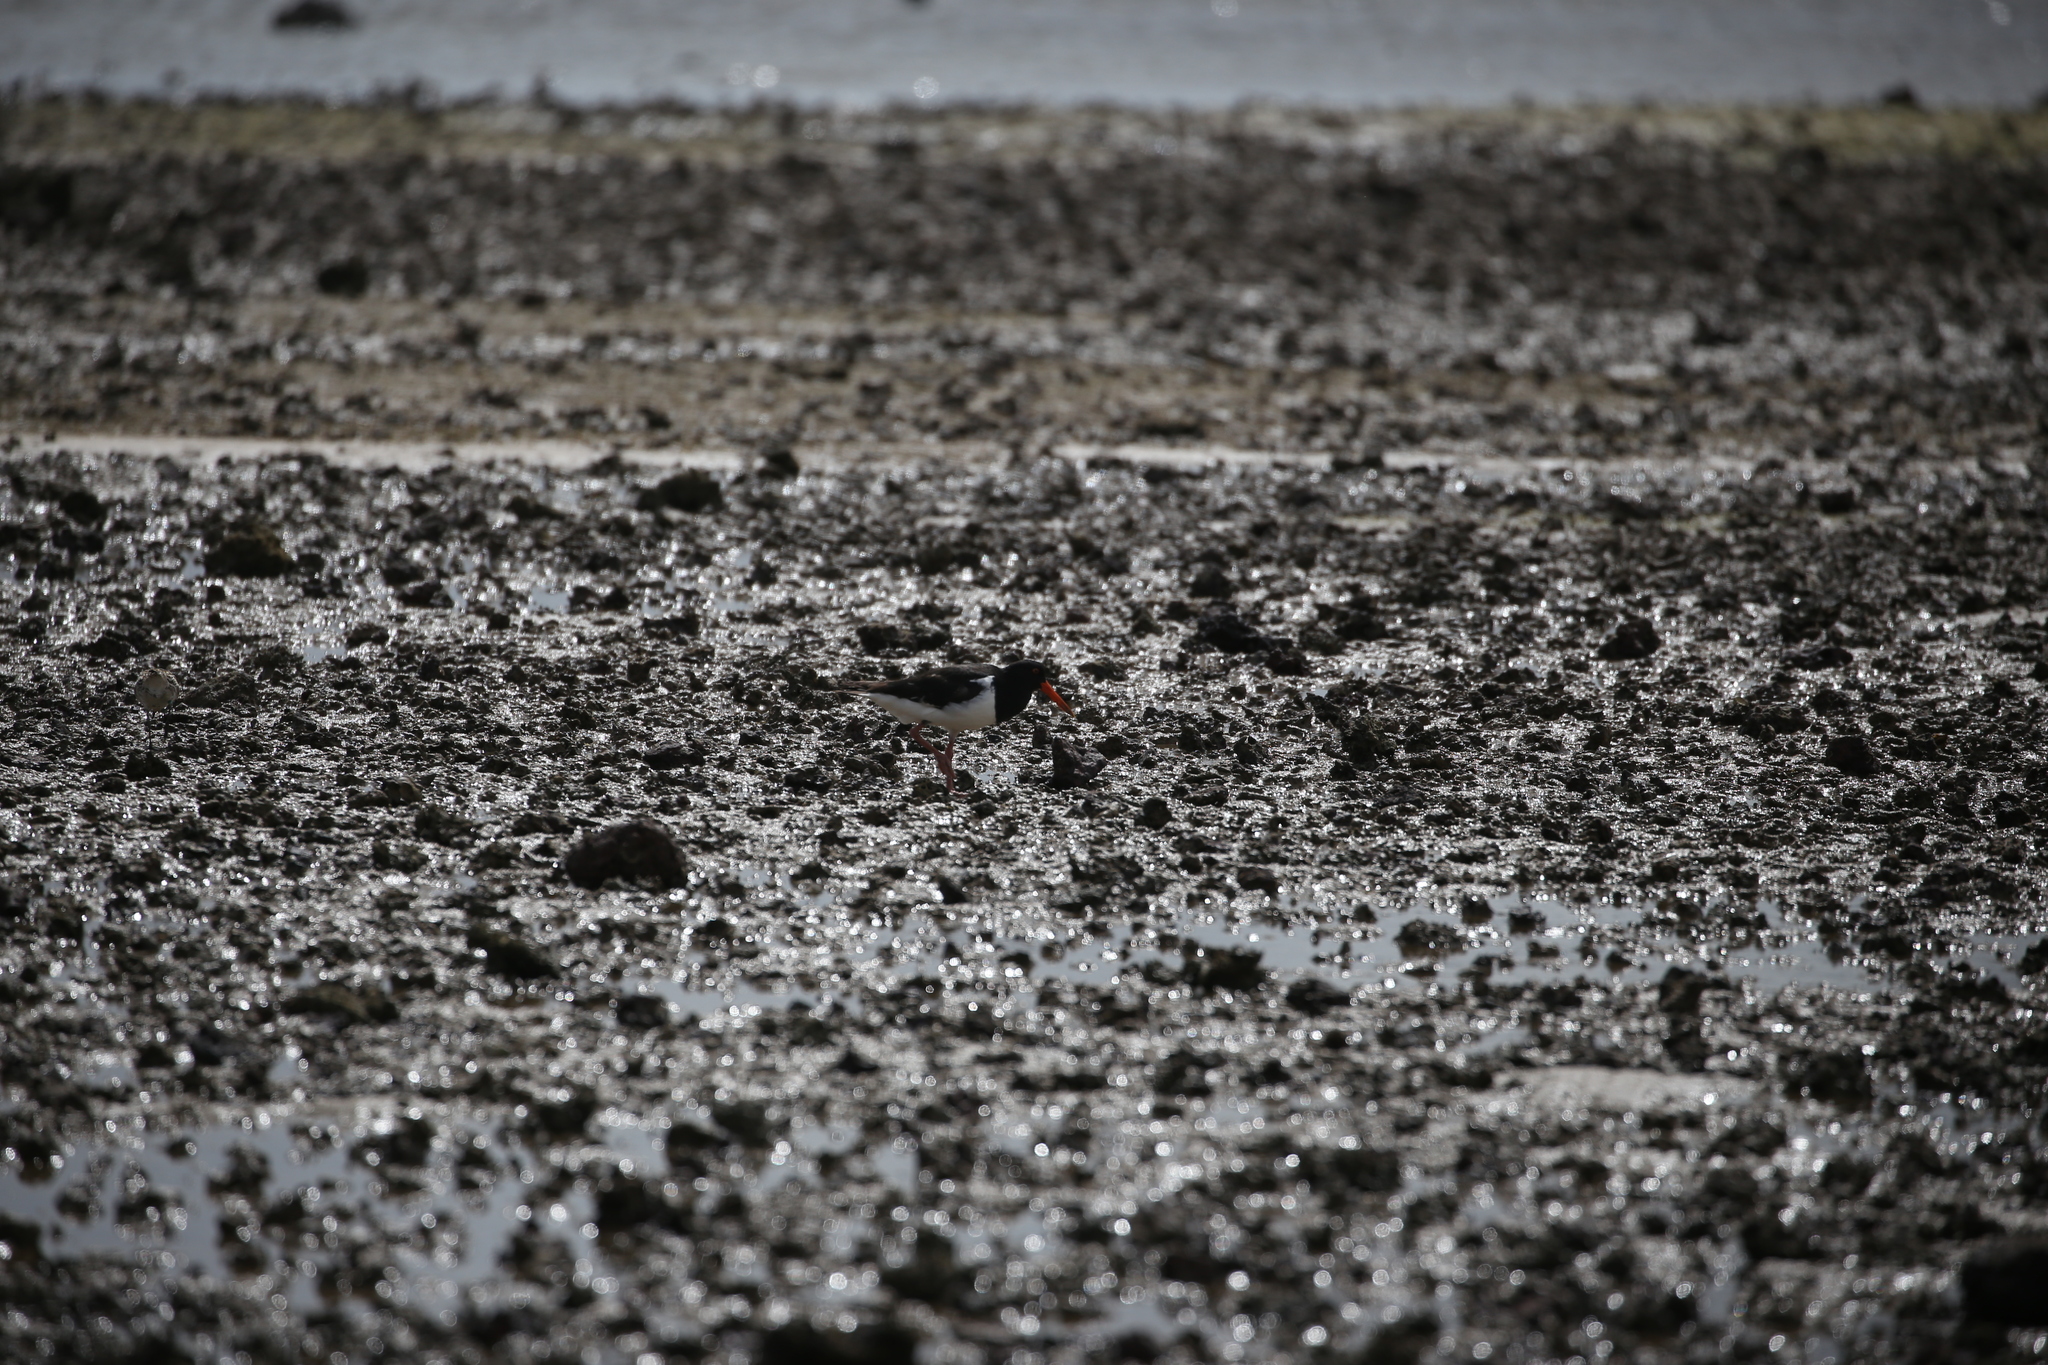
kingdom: Animalia
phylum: Chordata
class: Aves
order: Charadriiformes
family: Haematopodidae
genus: Haematopus
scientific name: Haematopus longirostris
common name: Pied oystercatcher
